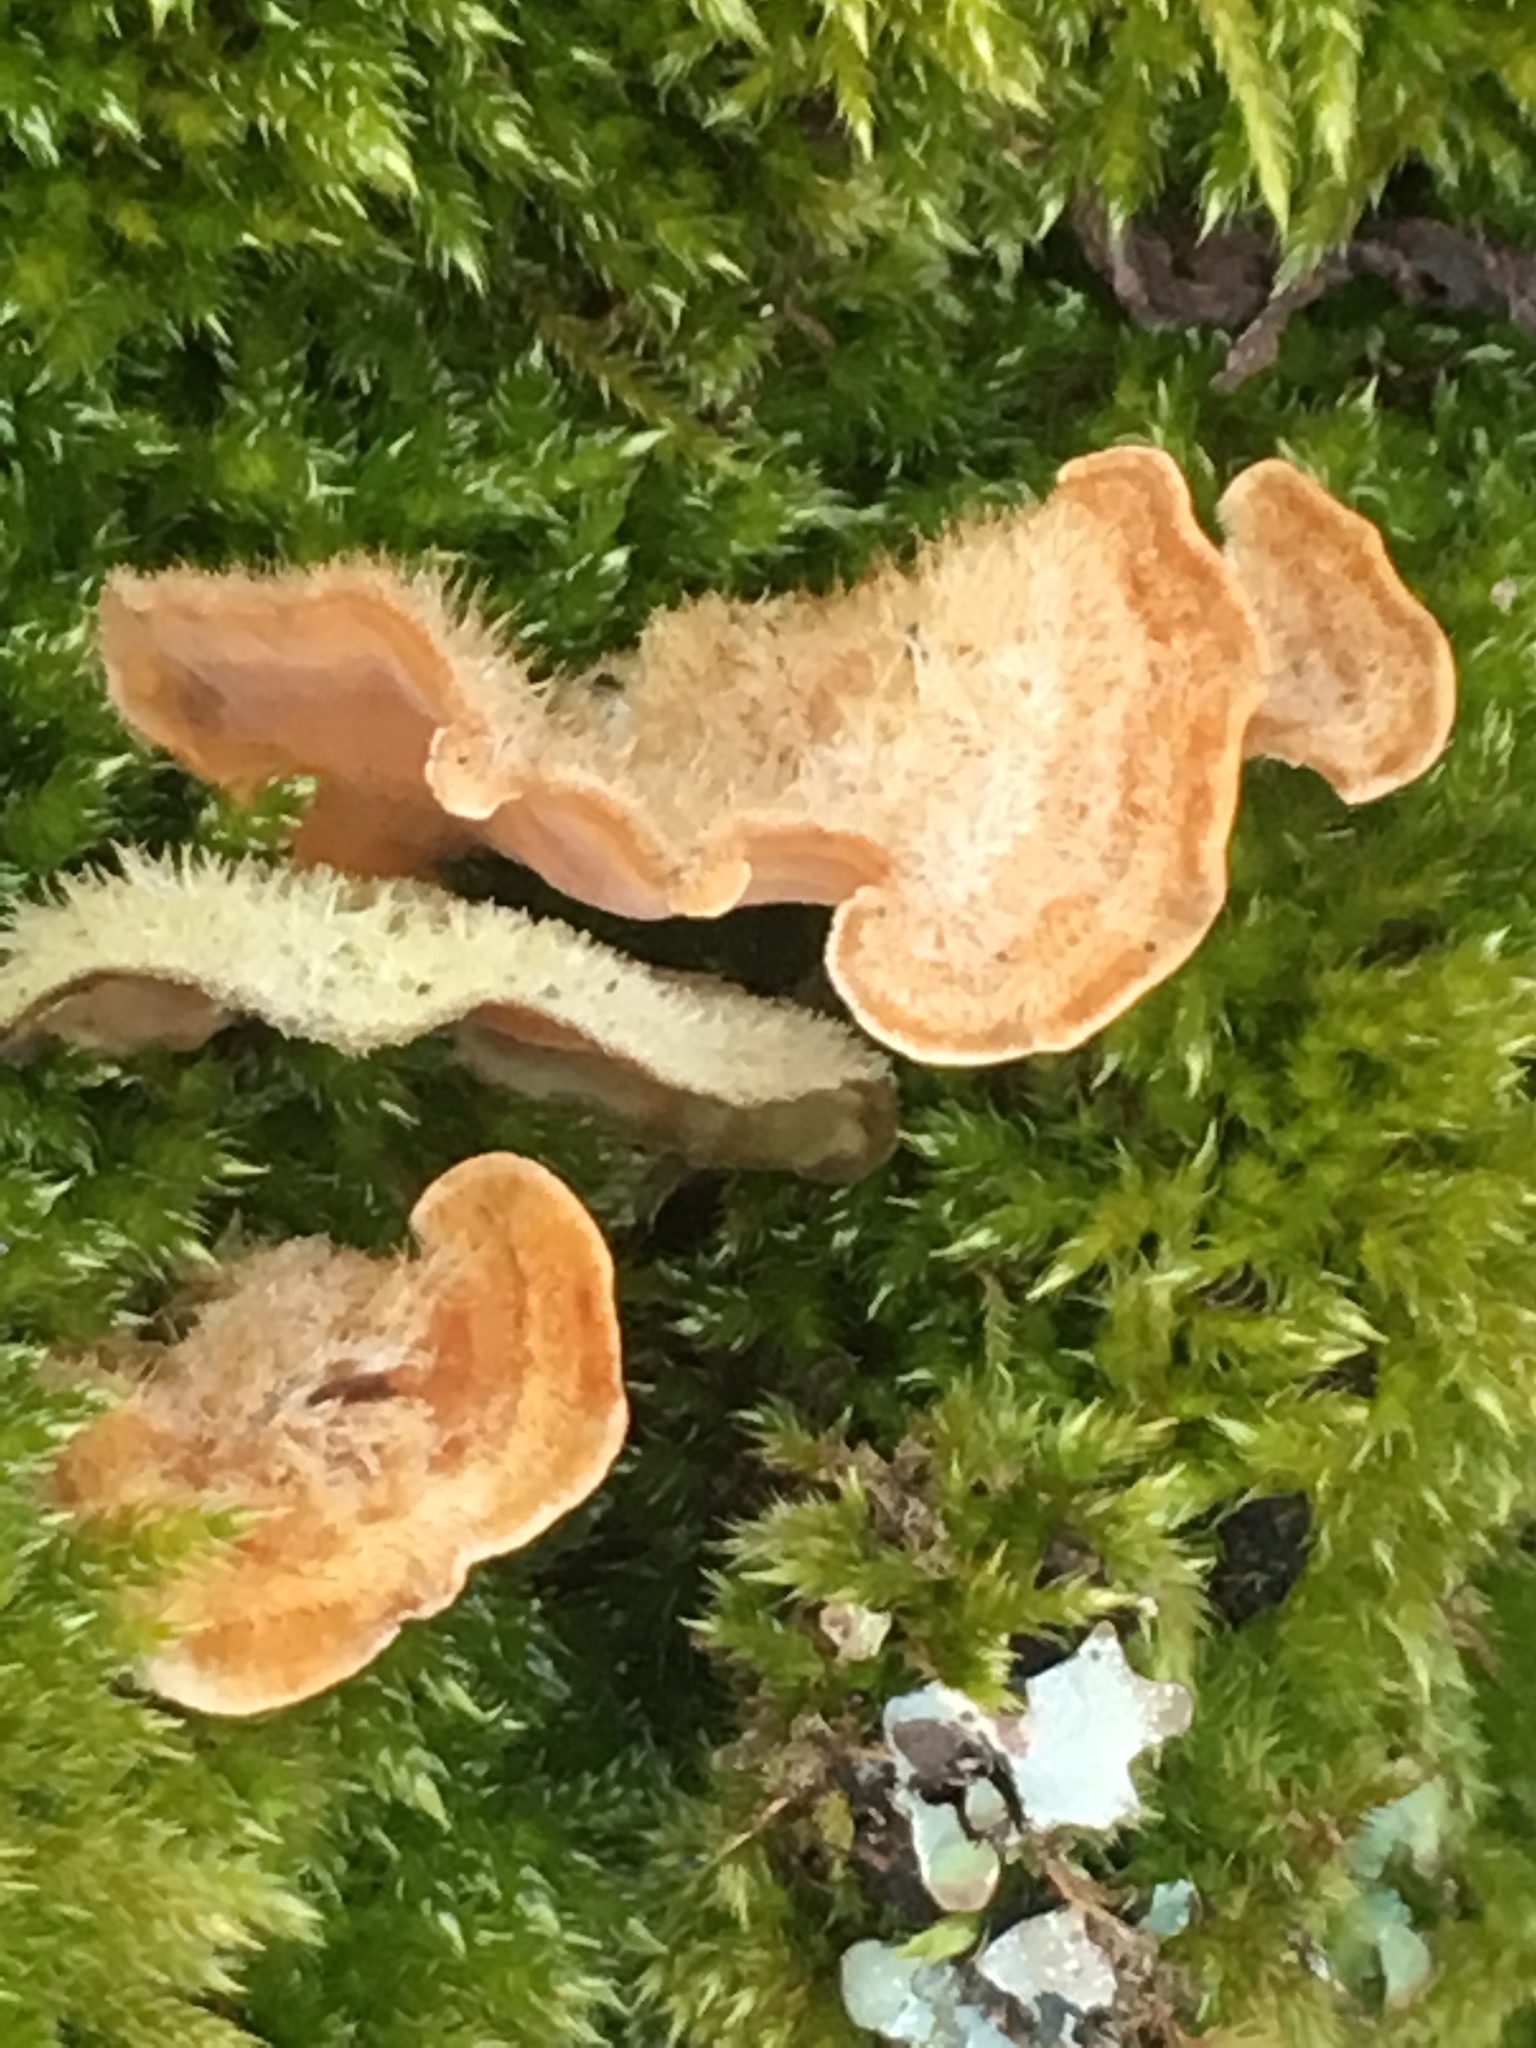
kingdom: Fungi
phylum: Basidiomycota
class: Agaricomycetes
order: Russulales
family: Stereaceae
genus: Stereum
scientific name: Stereum hirsutum
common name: Hairy curtain crust
